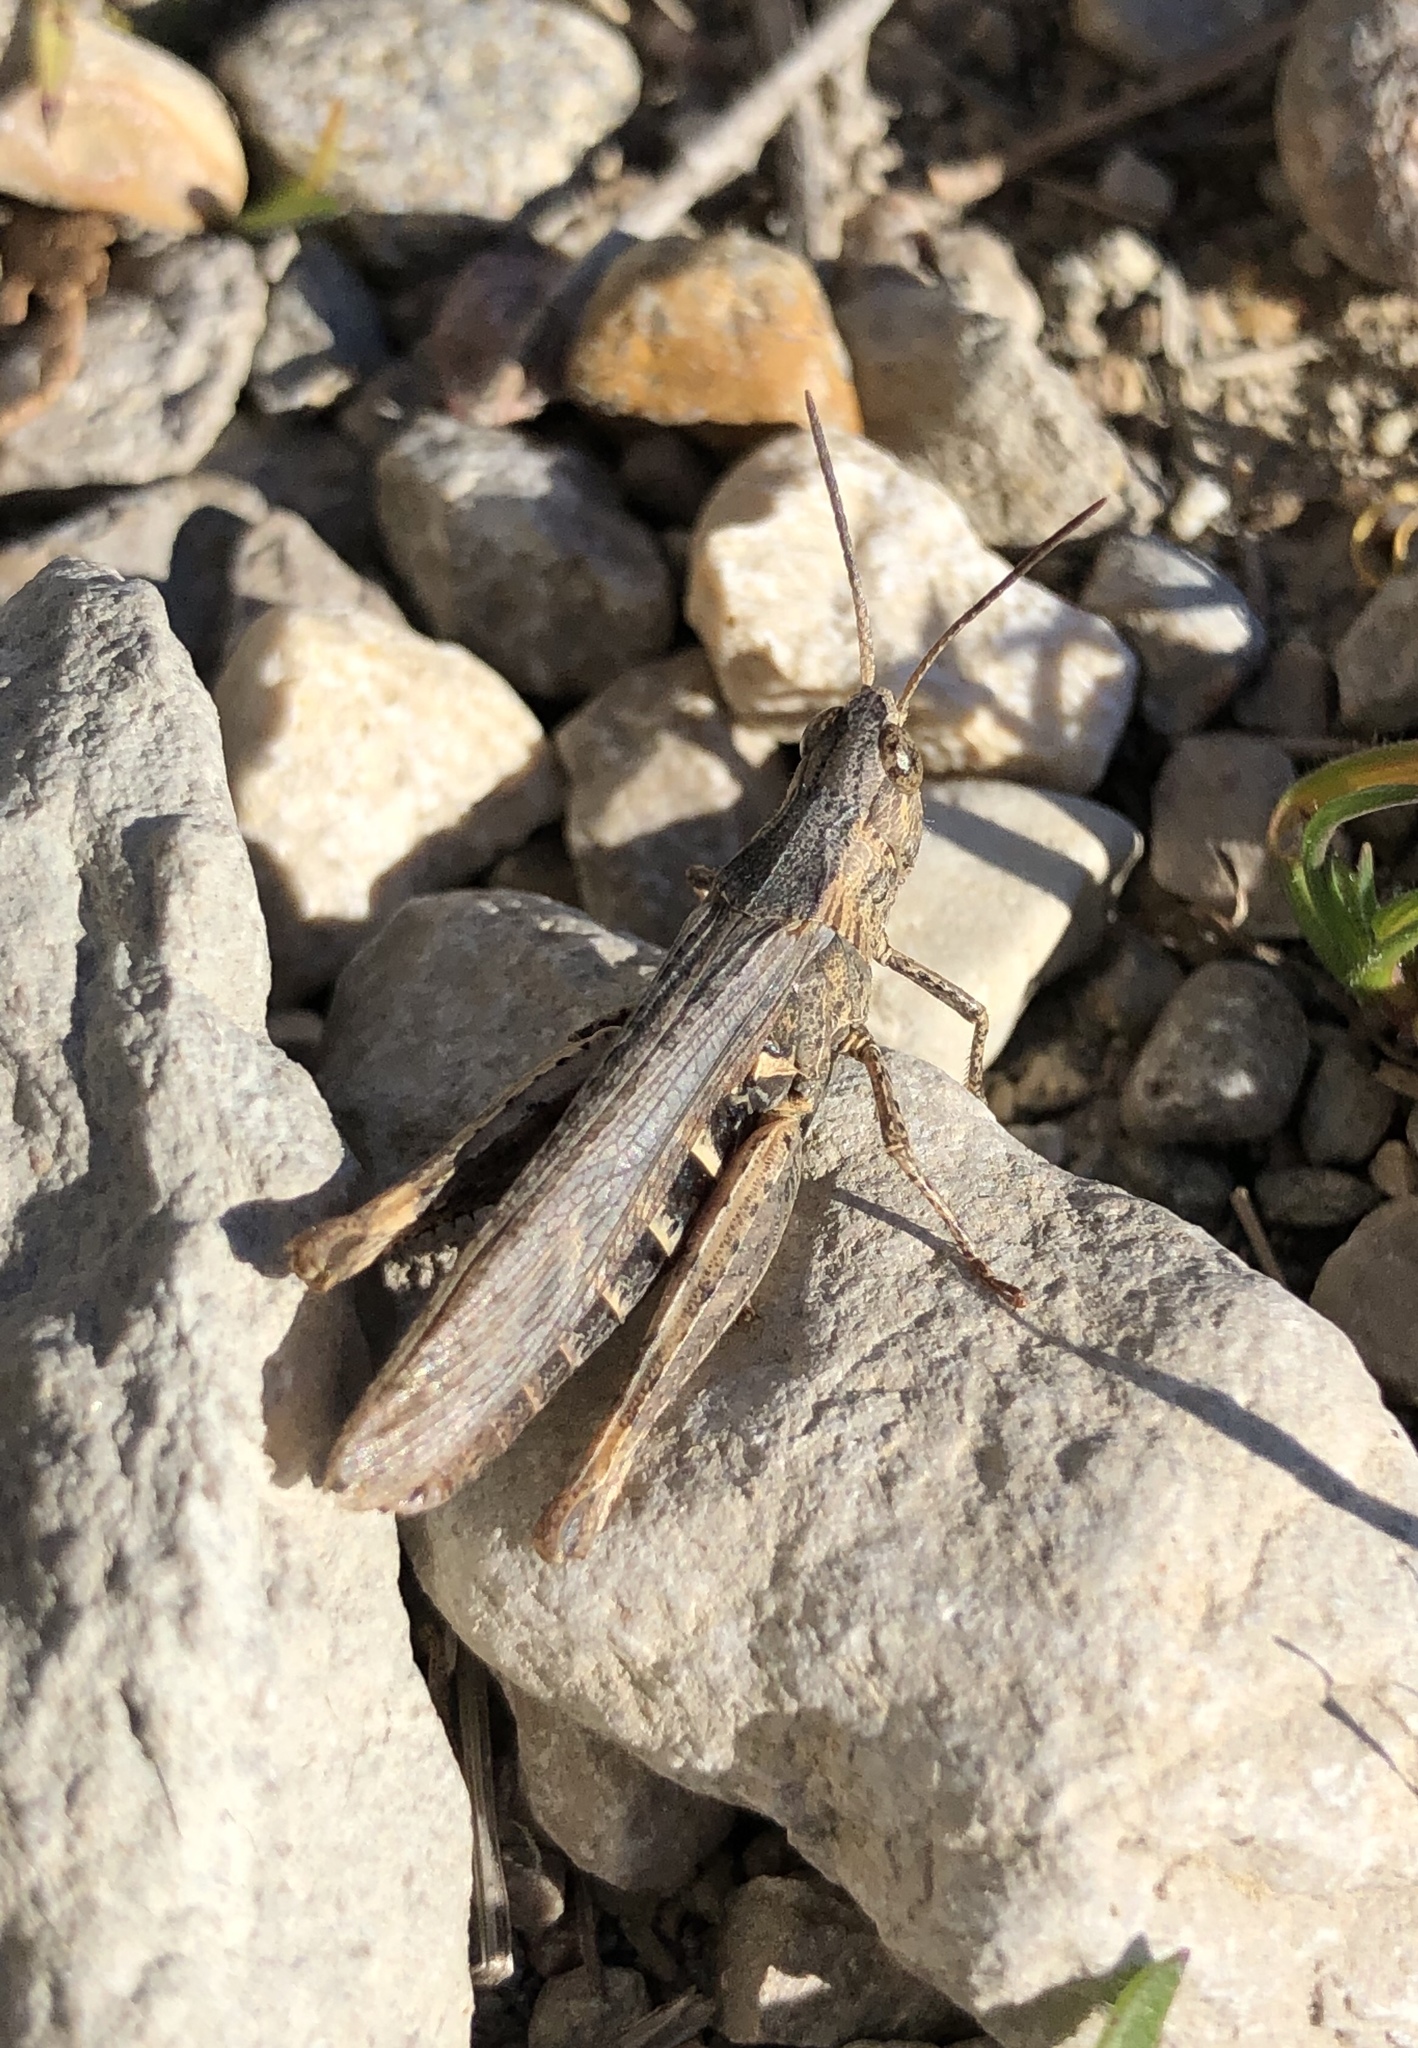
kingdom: Animalia
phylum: Arthropoda
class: Insecta
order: Orthoptera
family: Acrididae
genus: Chorthippus
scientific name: Chorthippus jacobsi
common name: Iberian field grasshopper
